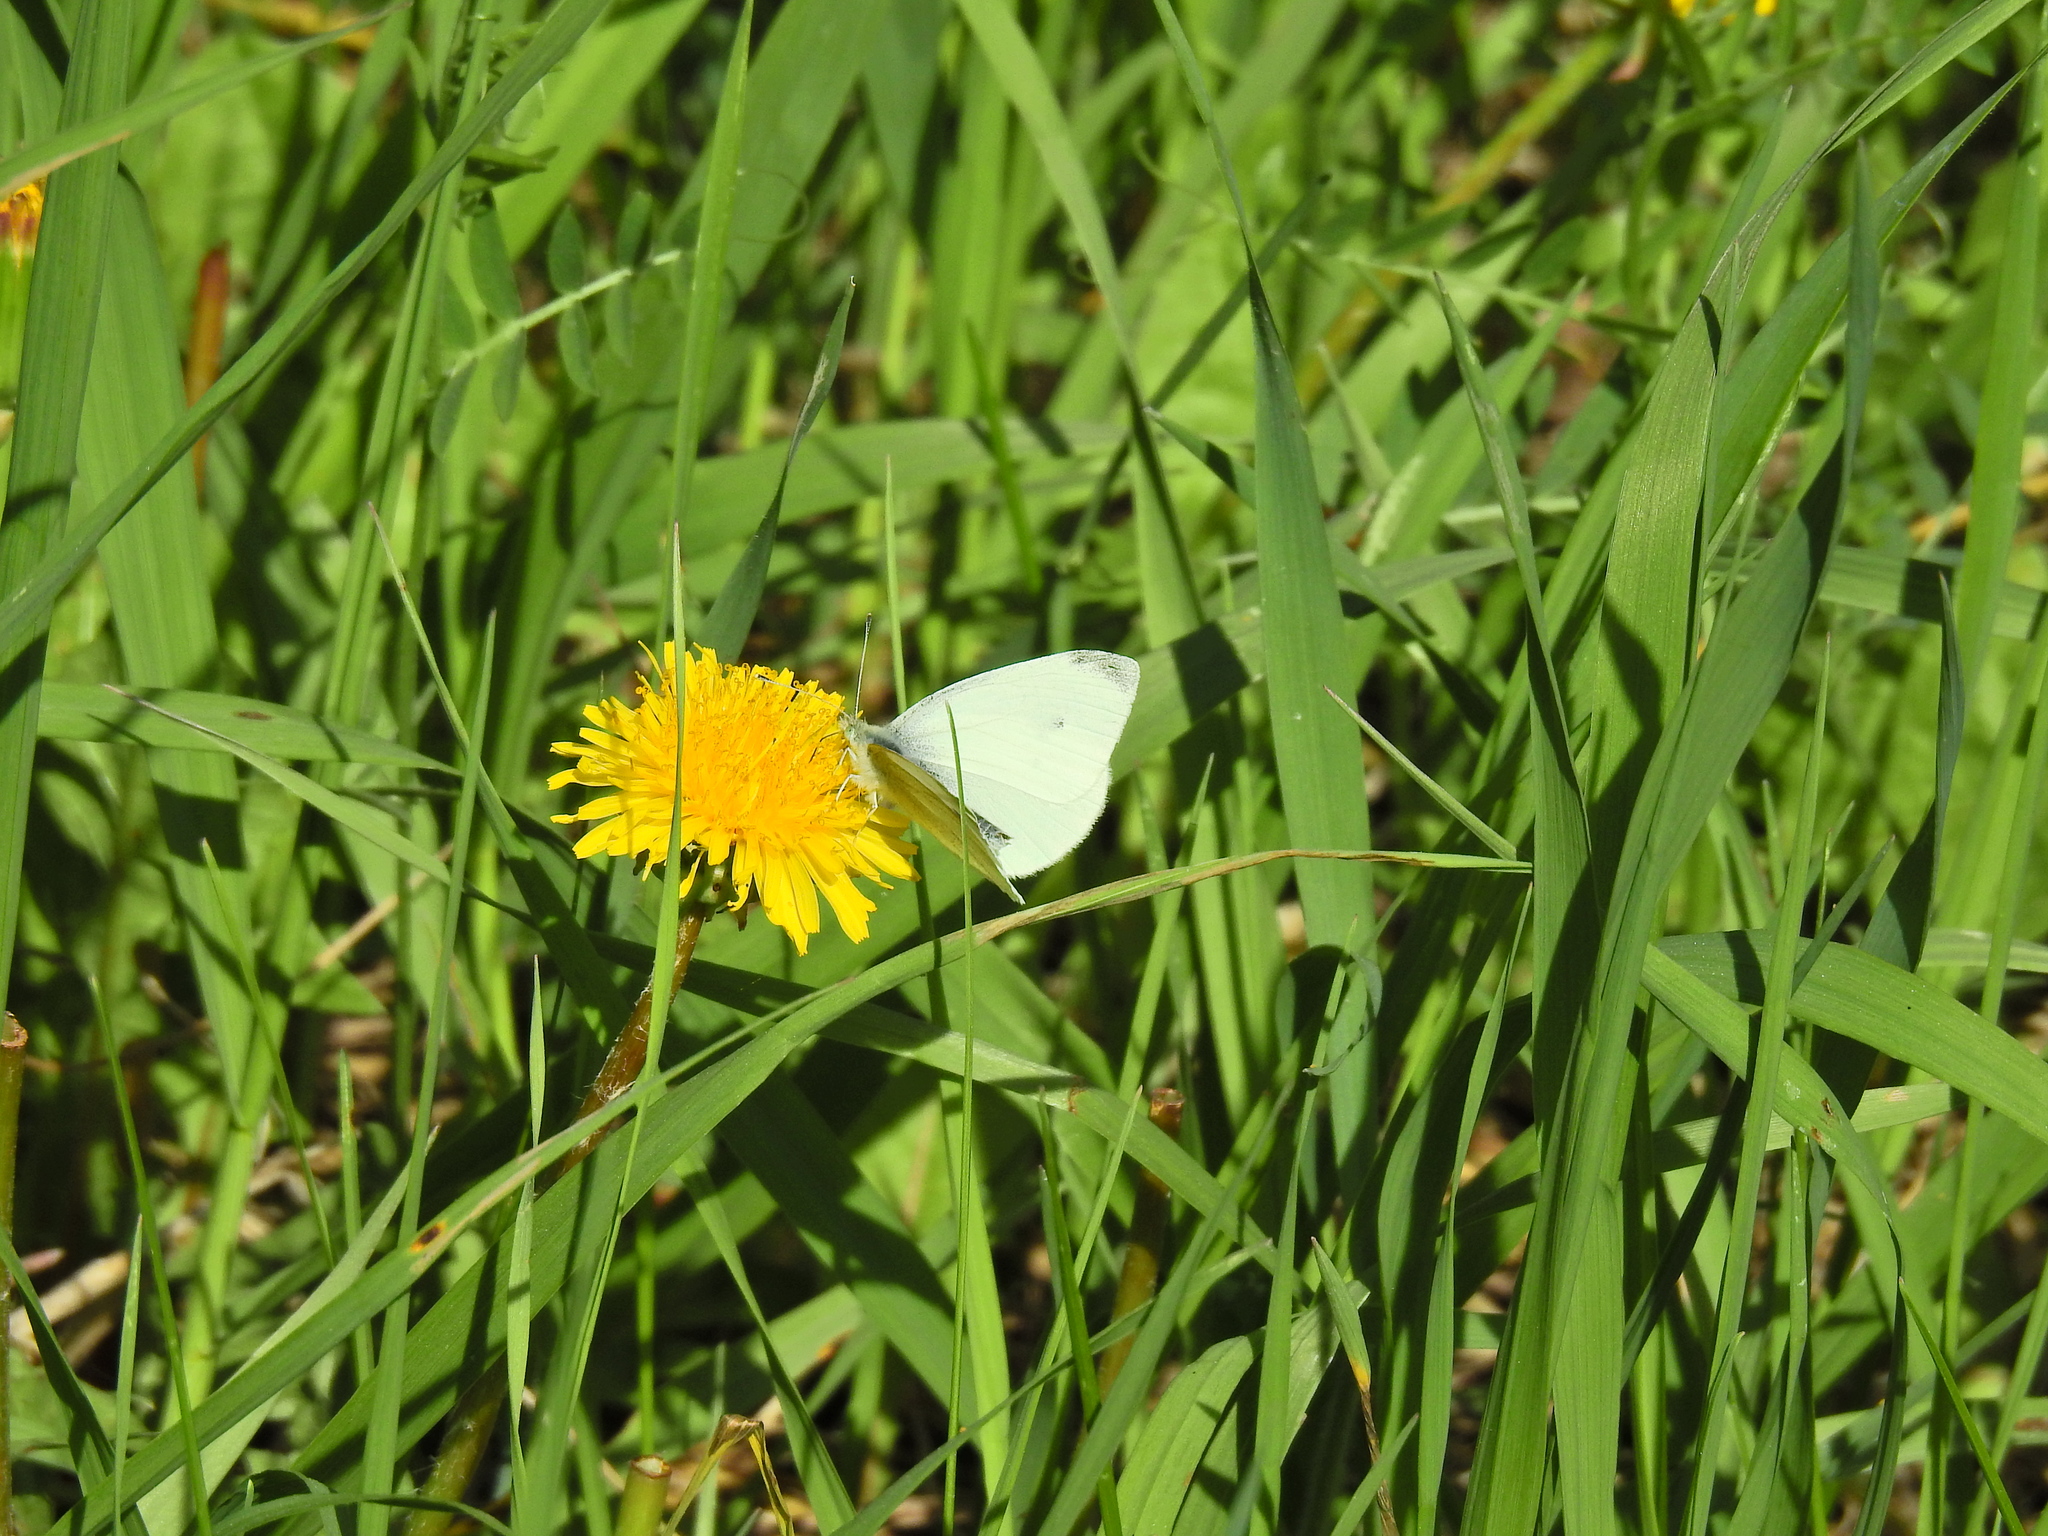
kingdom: Animalia
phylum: Arthropoda
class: Insecta
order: Lepidoptera
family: Pieridae
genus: Pieris
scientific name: Pieris rapae
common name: Small white
